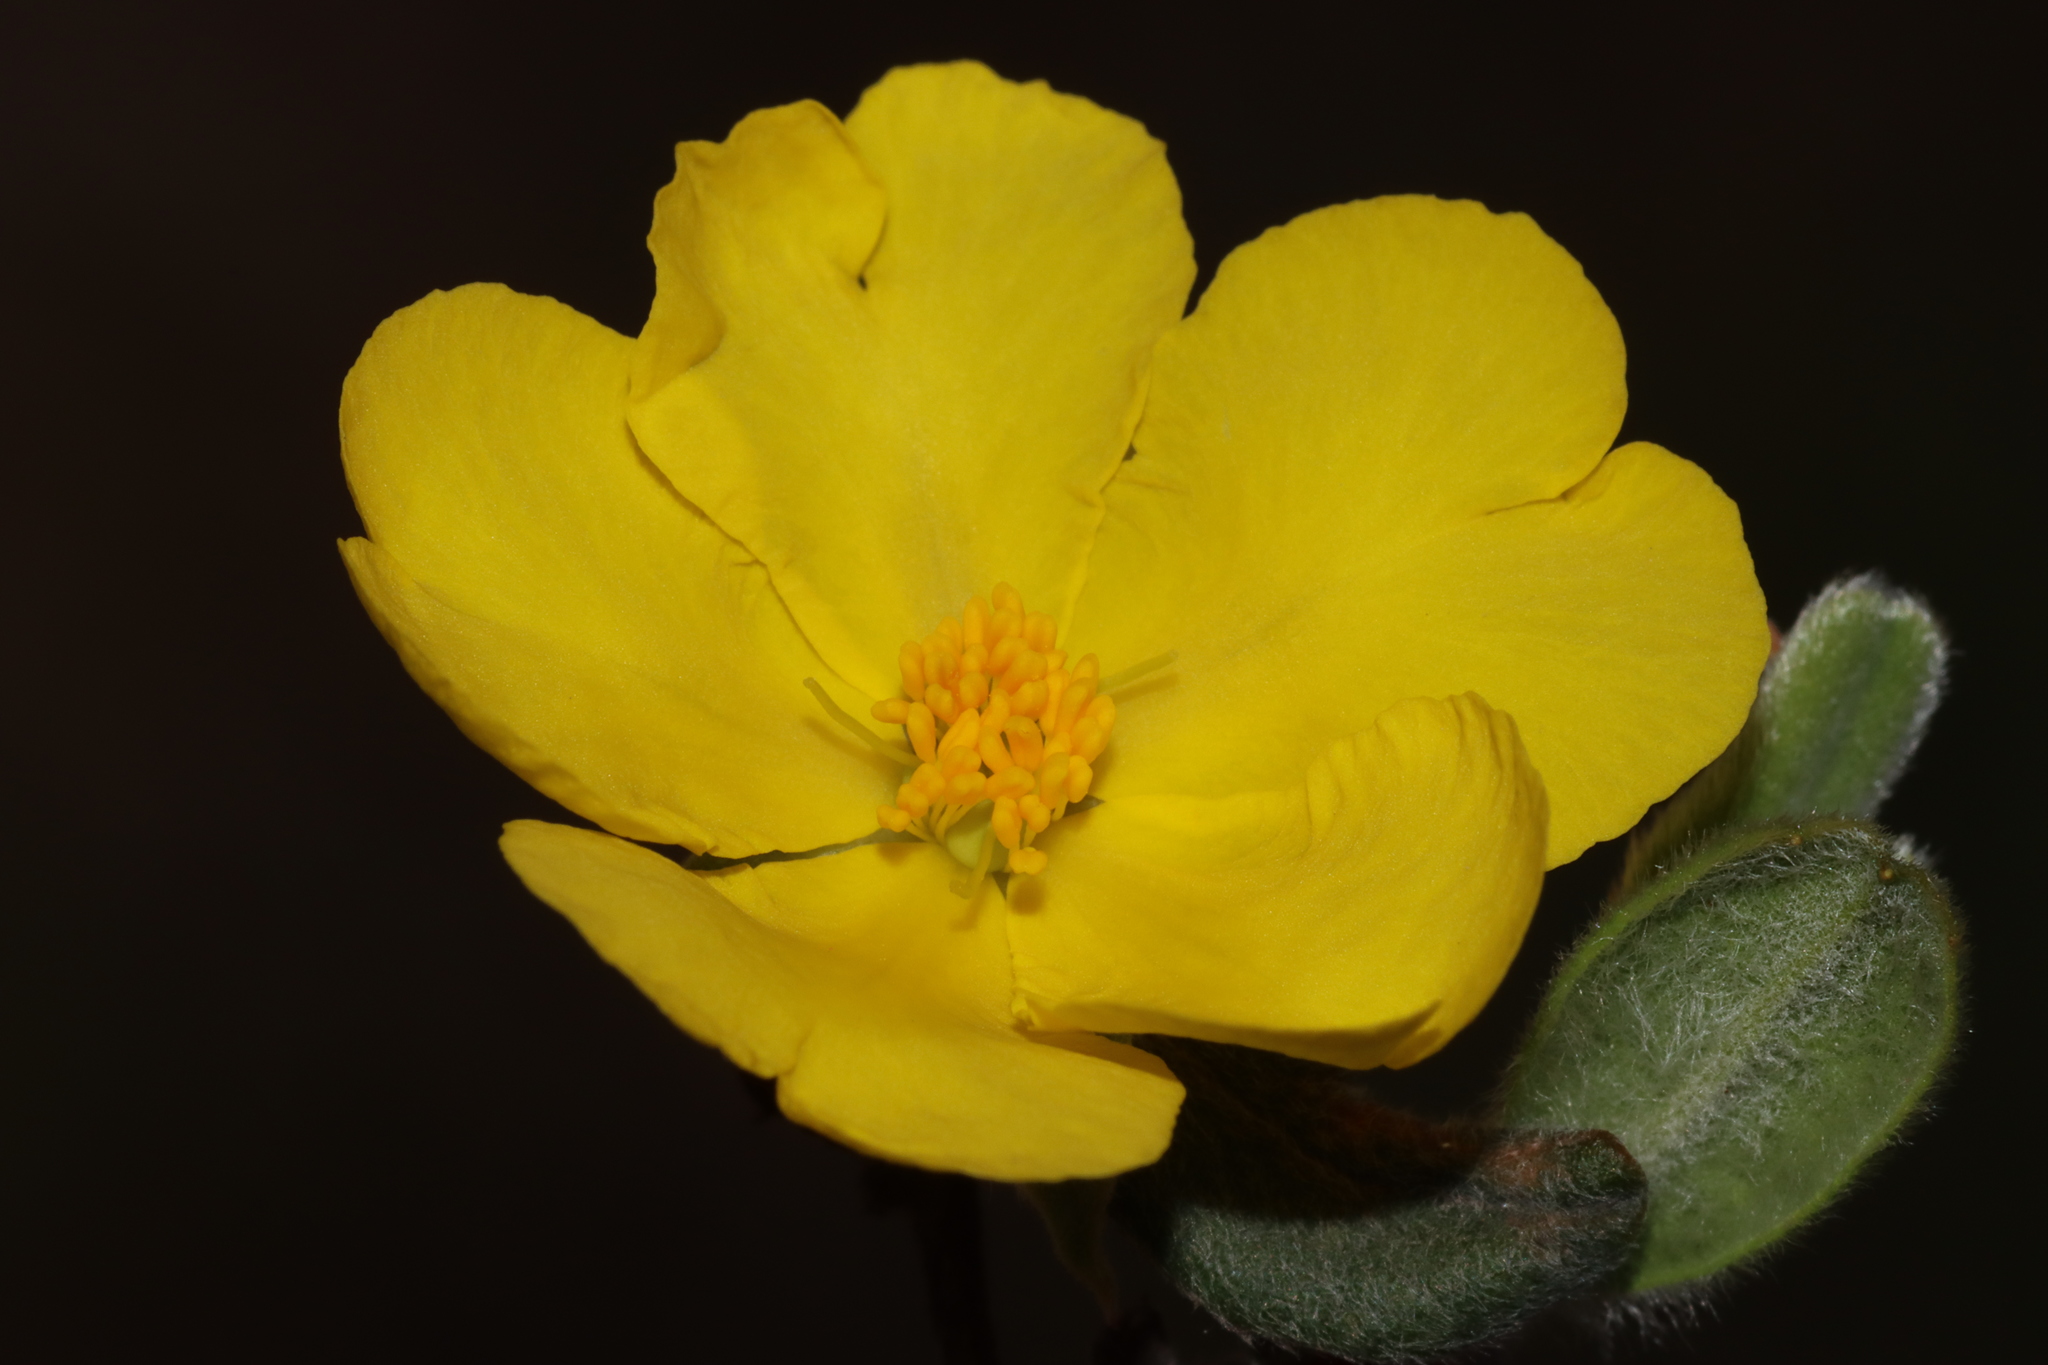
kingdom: Plantae
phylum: Tracheophyta
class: Magnoliopsida
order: Dilleniales
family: Dilleniaceae
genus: Hibbertia
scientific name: Hibbertia commutata
